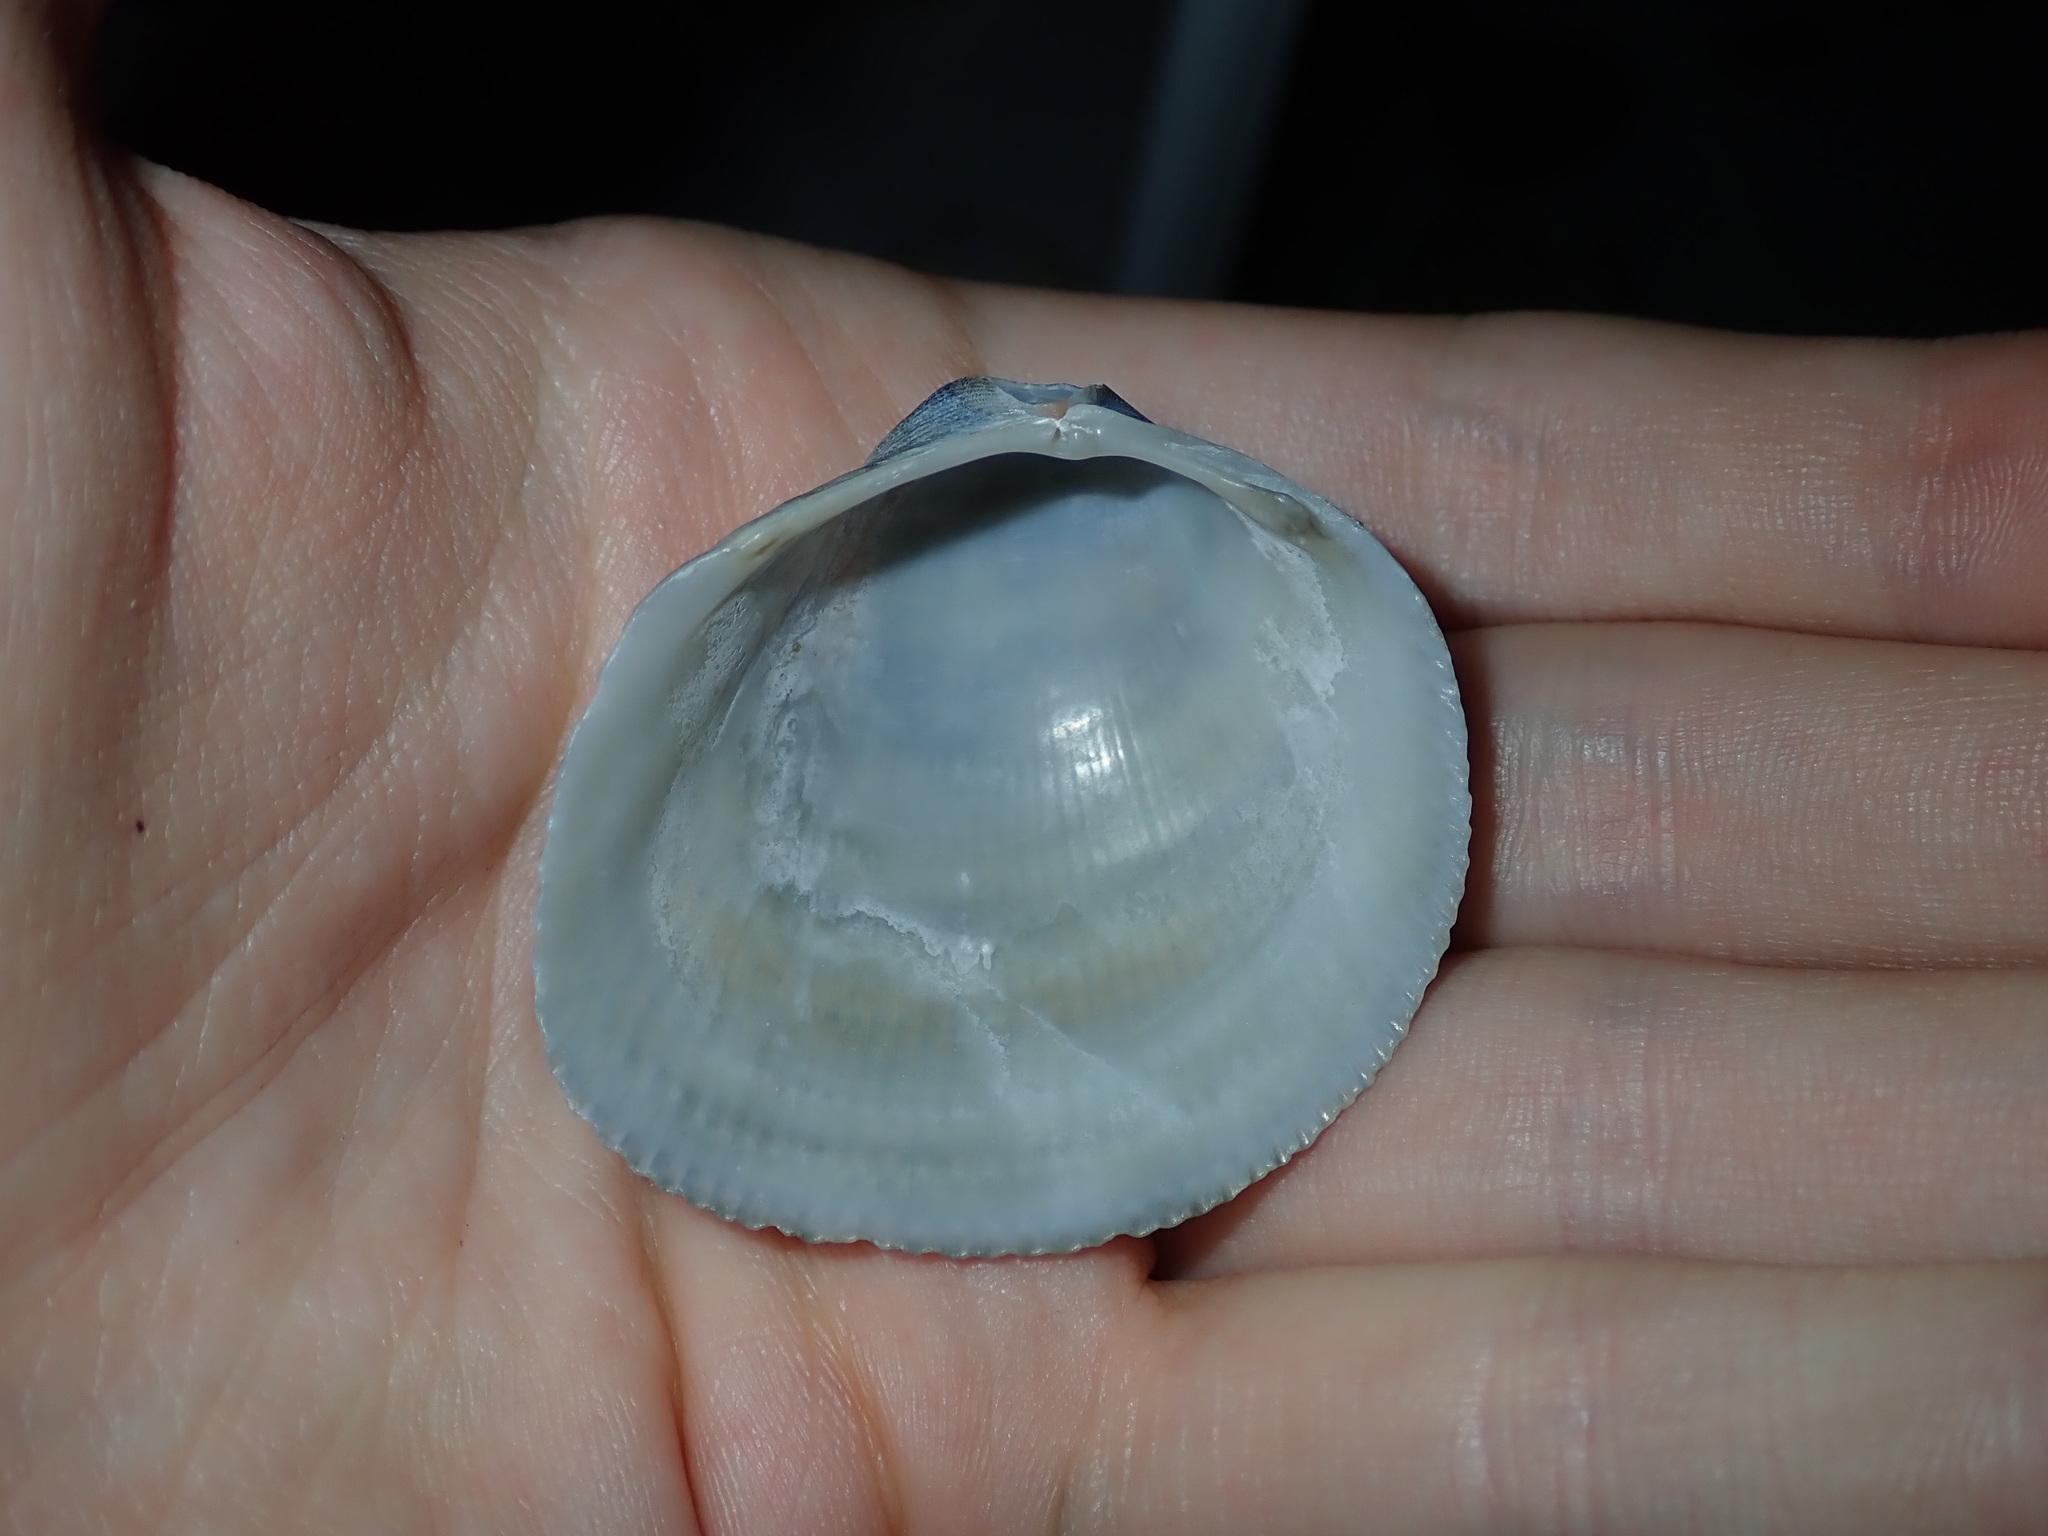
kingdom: Animalia
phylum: Mollusca
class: Bivalvia
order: Cardiida
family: Cardiidae
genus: Fulvia
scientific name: Fulvia tenuicostata
